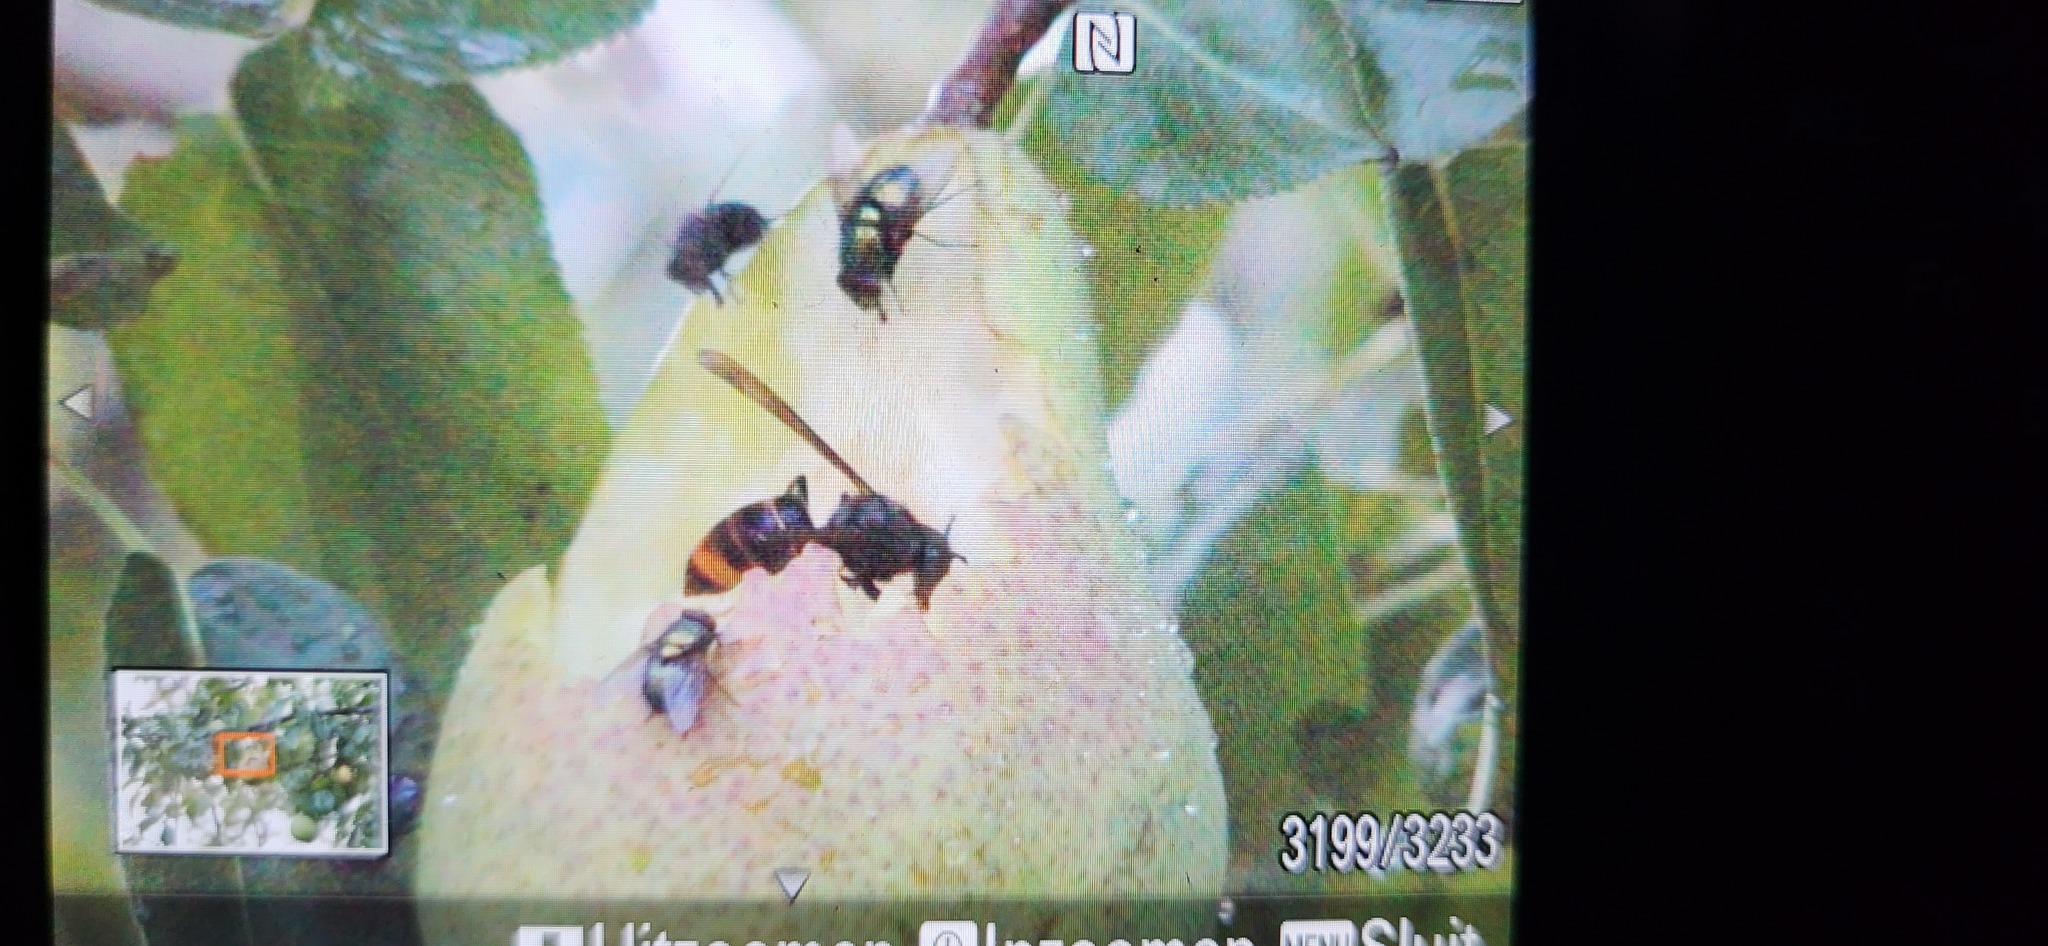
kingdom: Animalia
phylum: Arthropoda
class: Insecta
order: Hymenoptera
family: Vespidae
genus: Vespa
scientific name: Vespa velutina
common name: Asian hornet
